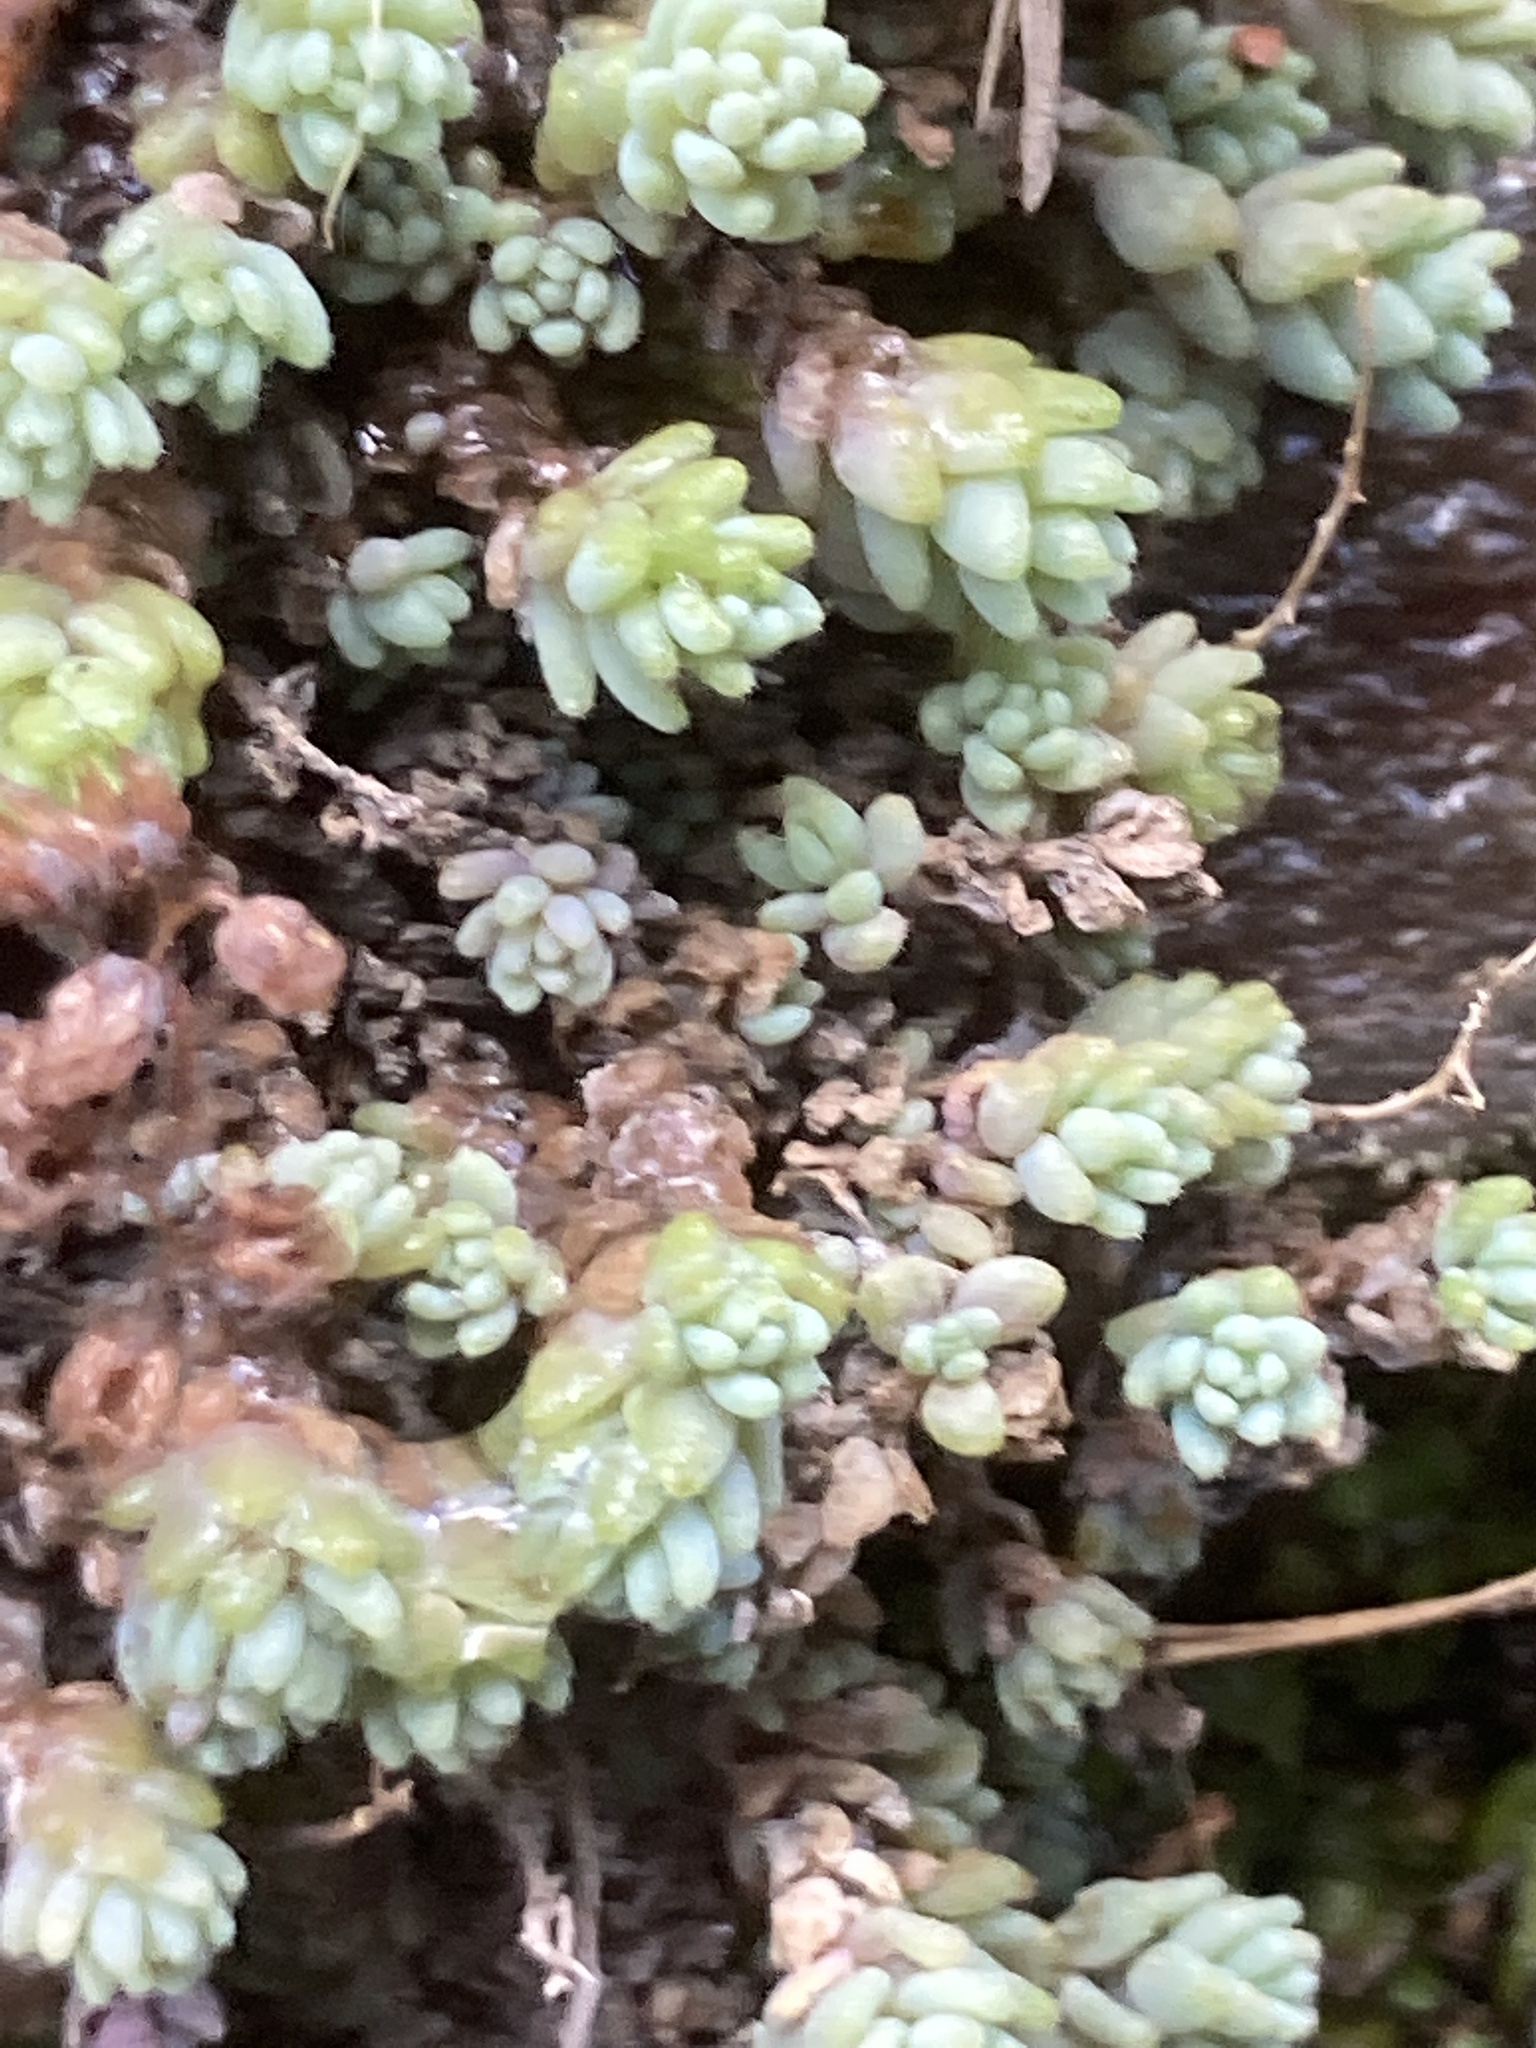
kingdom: Plantae
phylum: Tracheophyta
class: Magnoliopsida
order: Saxifragales
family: Crassulaceae
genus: Sedum
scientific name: Sedum dasyphyllum
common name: Thick-leaf stonecrop
